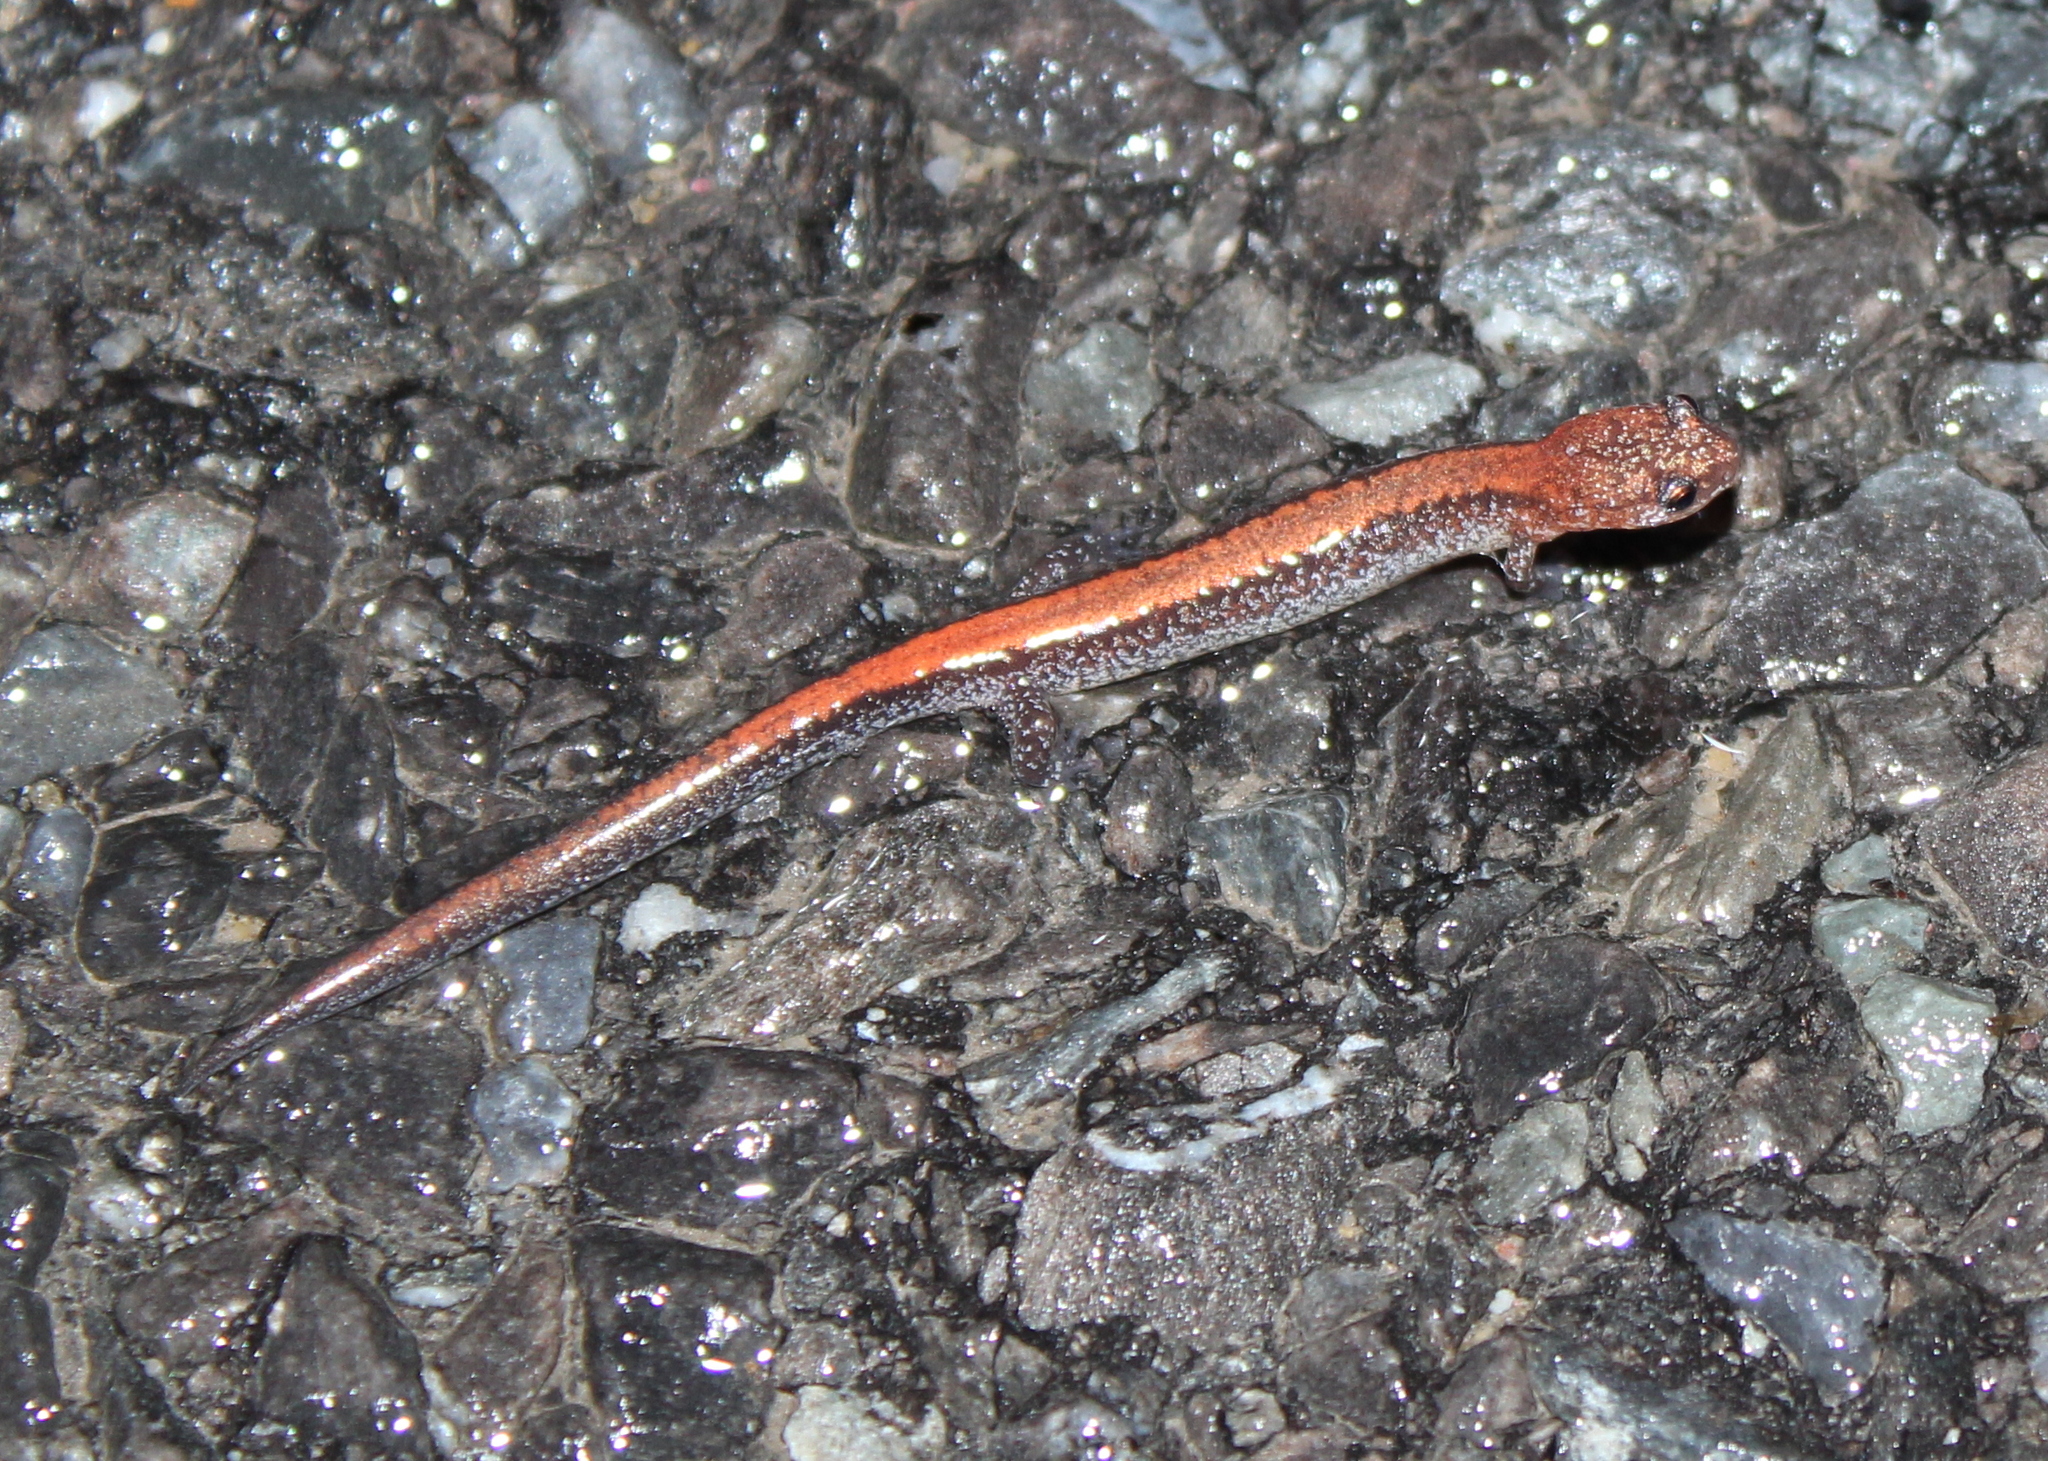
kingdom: Animalia
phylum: Chordata
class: Amphibia
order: Caudata
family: Plethodontidae
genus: Plethodon
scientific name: Plethodon cinereus
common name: Redback salamander
